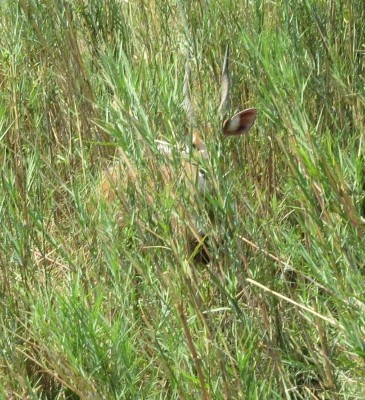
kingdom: Animalia
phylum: Chordata
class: Mammalia
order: Artiodactyla
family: Bovidae
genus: Tragelaphus
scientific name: Tragelaphus scriptus
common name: Bushbuck
